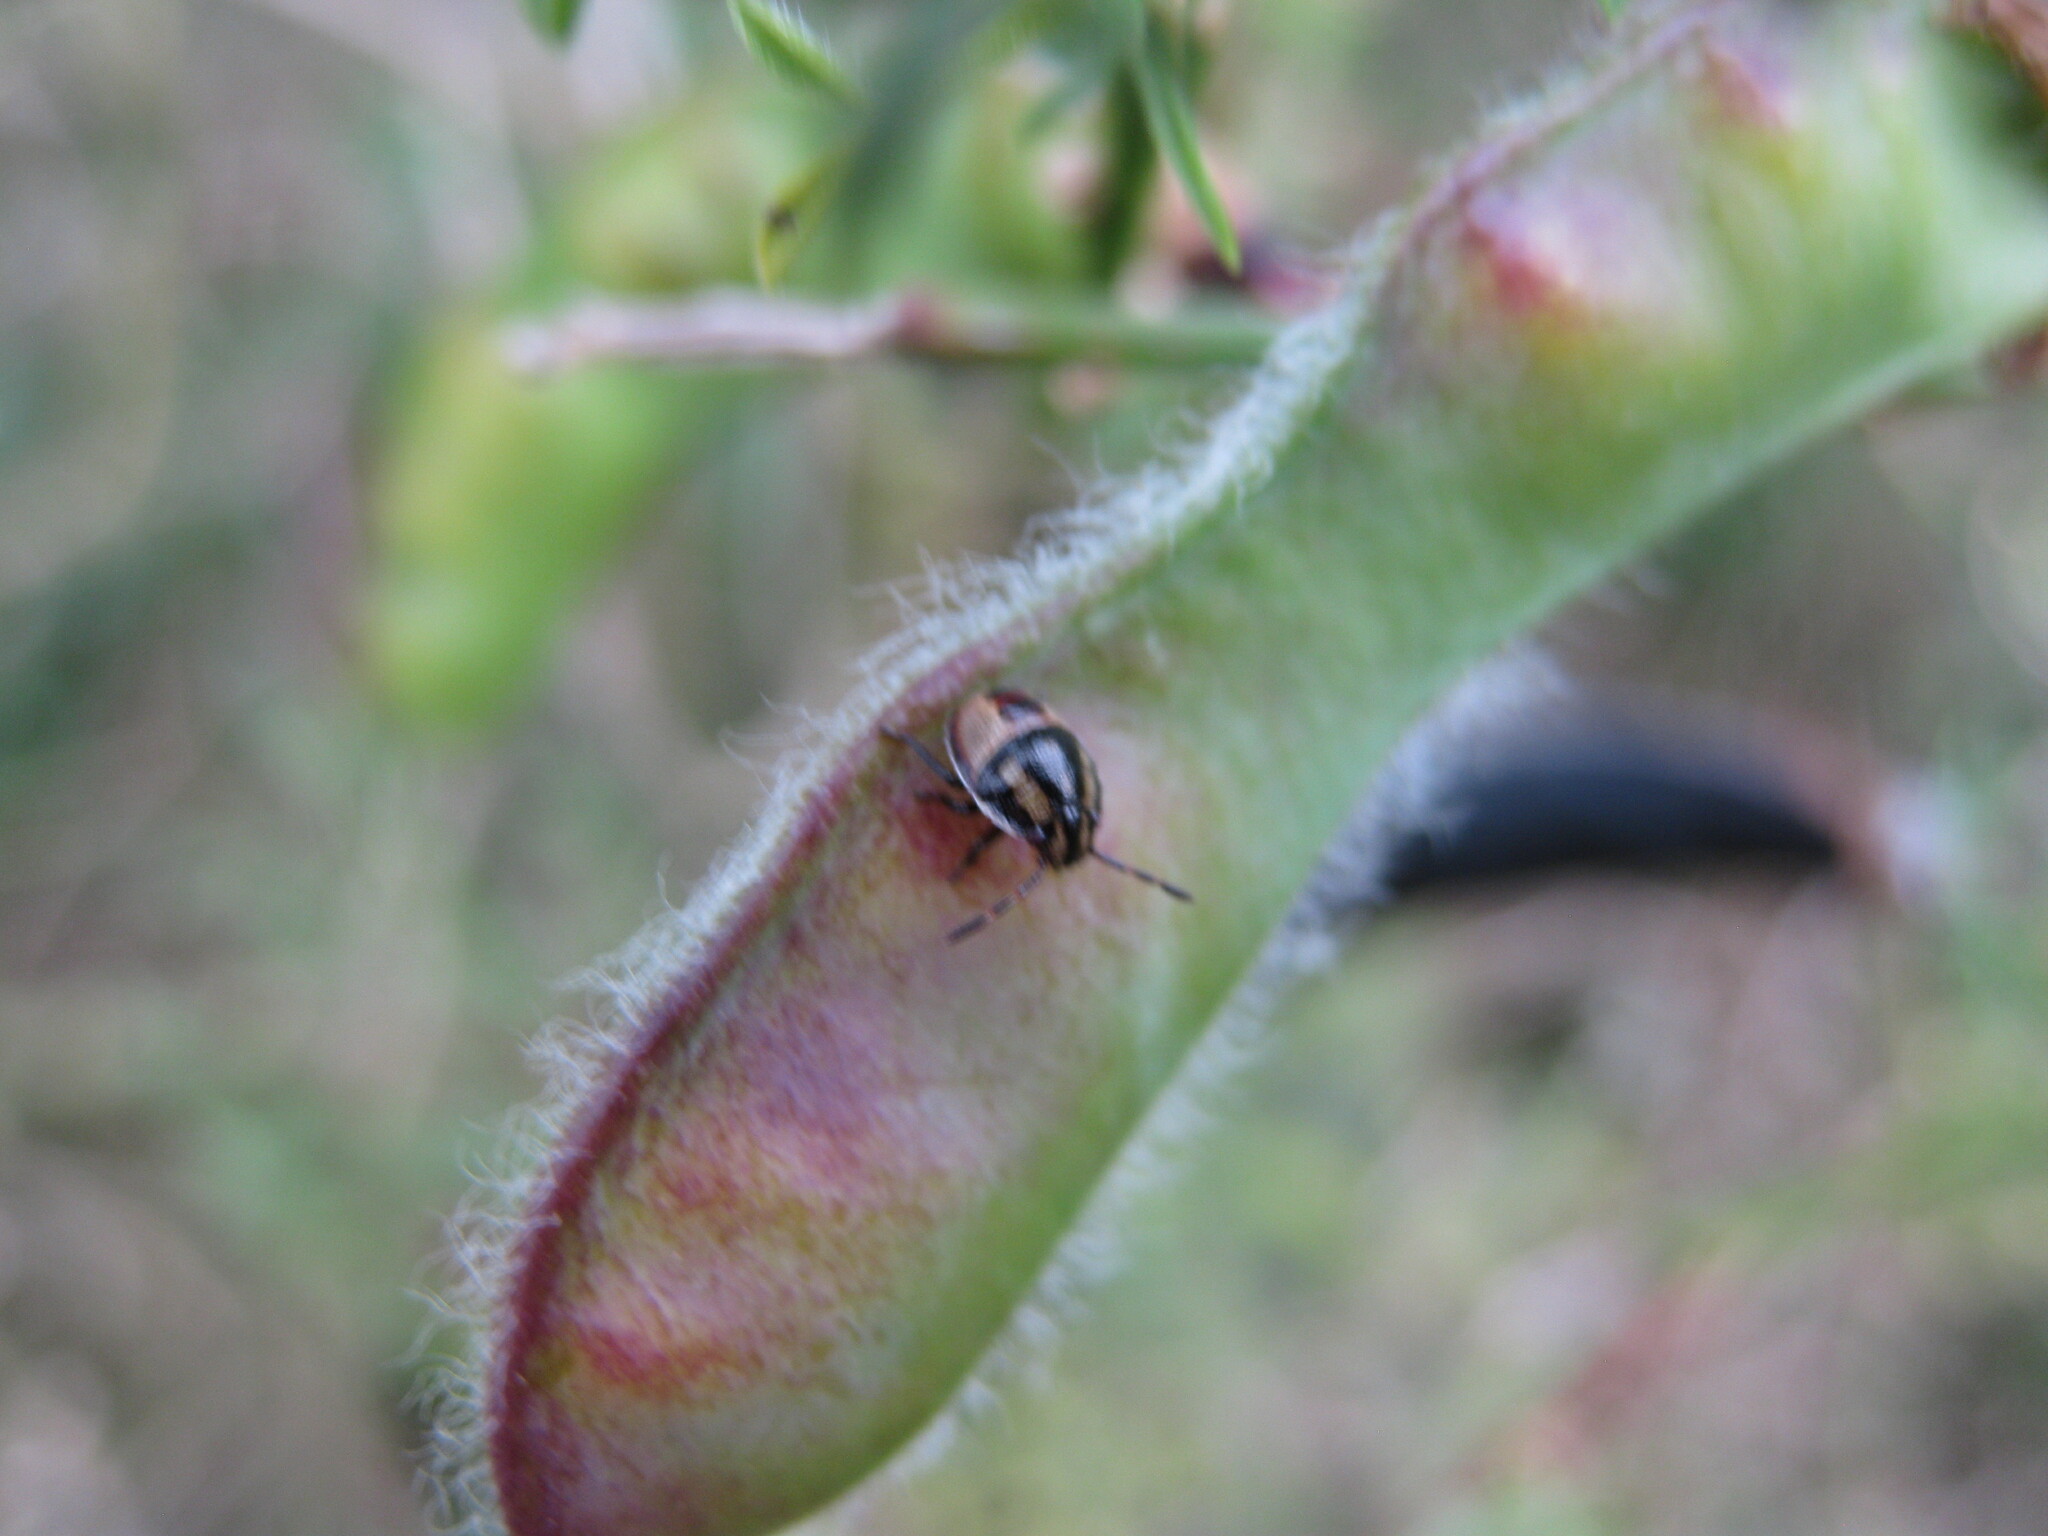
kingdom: Animalia
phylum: Arthropoda
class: Insecta
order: Hemiptera
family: Pentatomidae
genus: Piezodorus
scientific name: Piezodorus lituratus
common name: Stink bug
